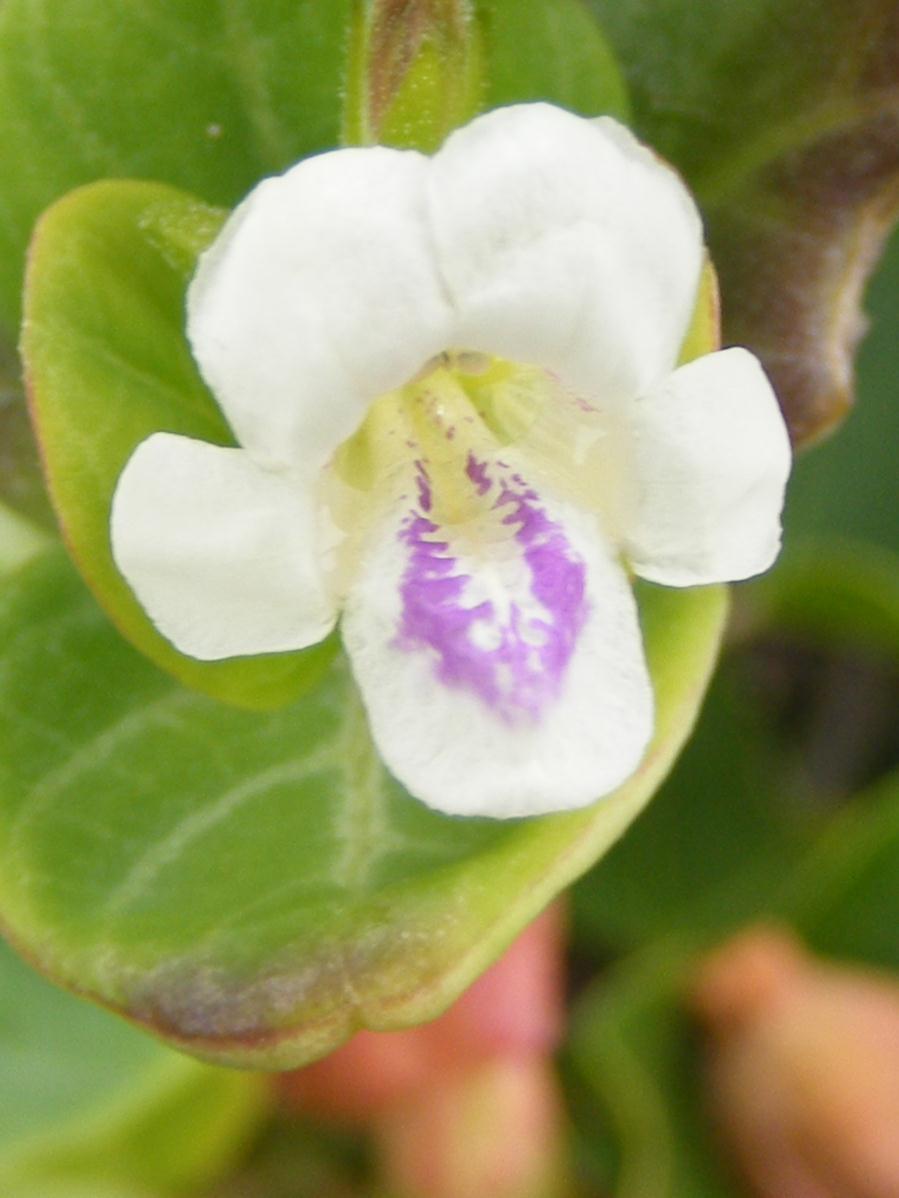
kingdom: Plantae
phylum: Tracheophyta
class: Magnoliopsida
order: Lamiales
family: Acanthaceae
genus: Asystasia
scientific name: Asystasia intrusa
